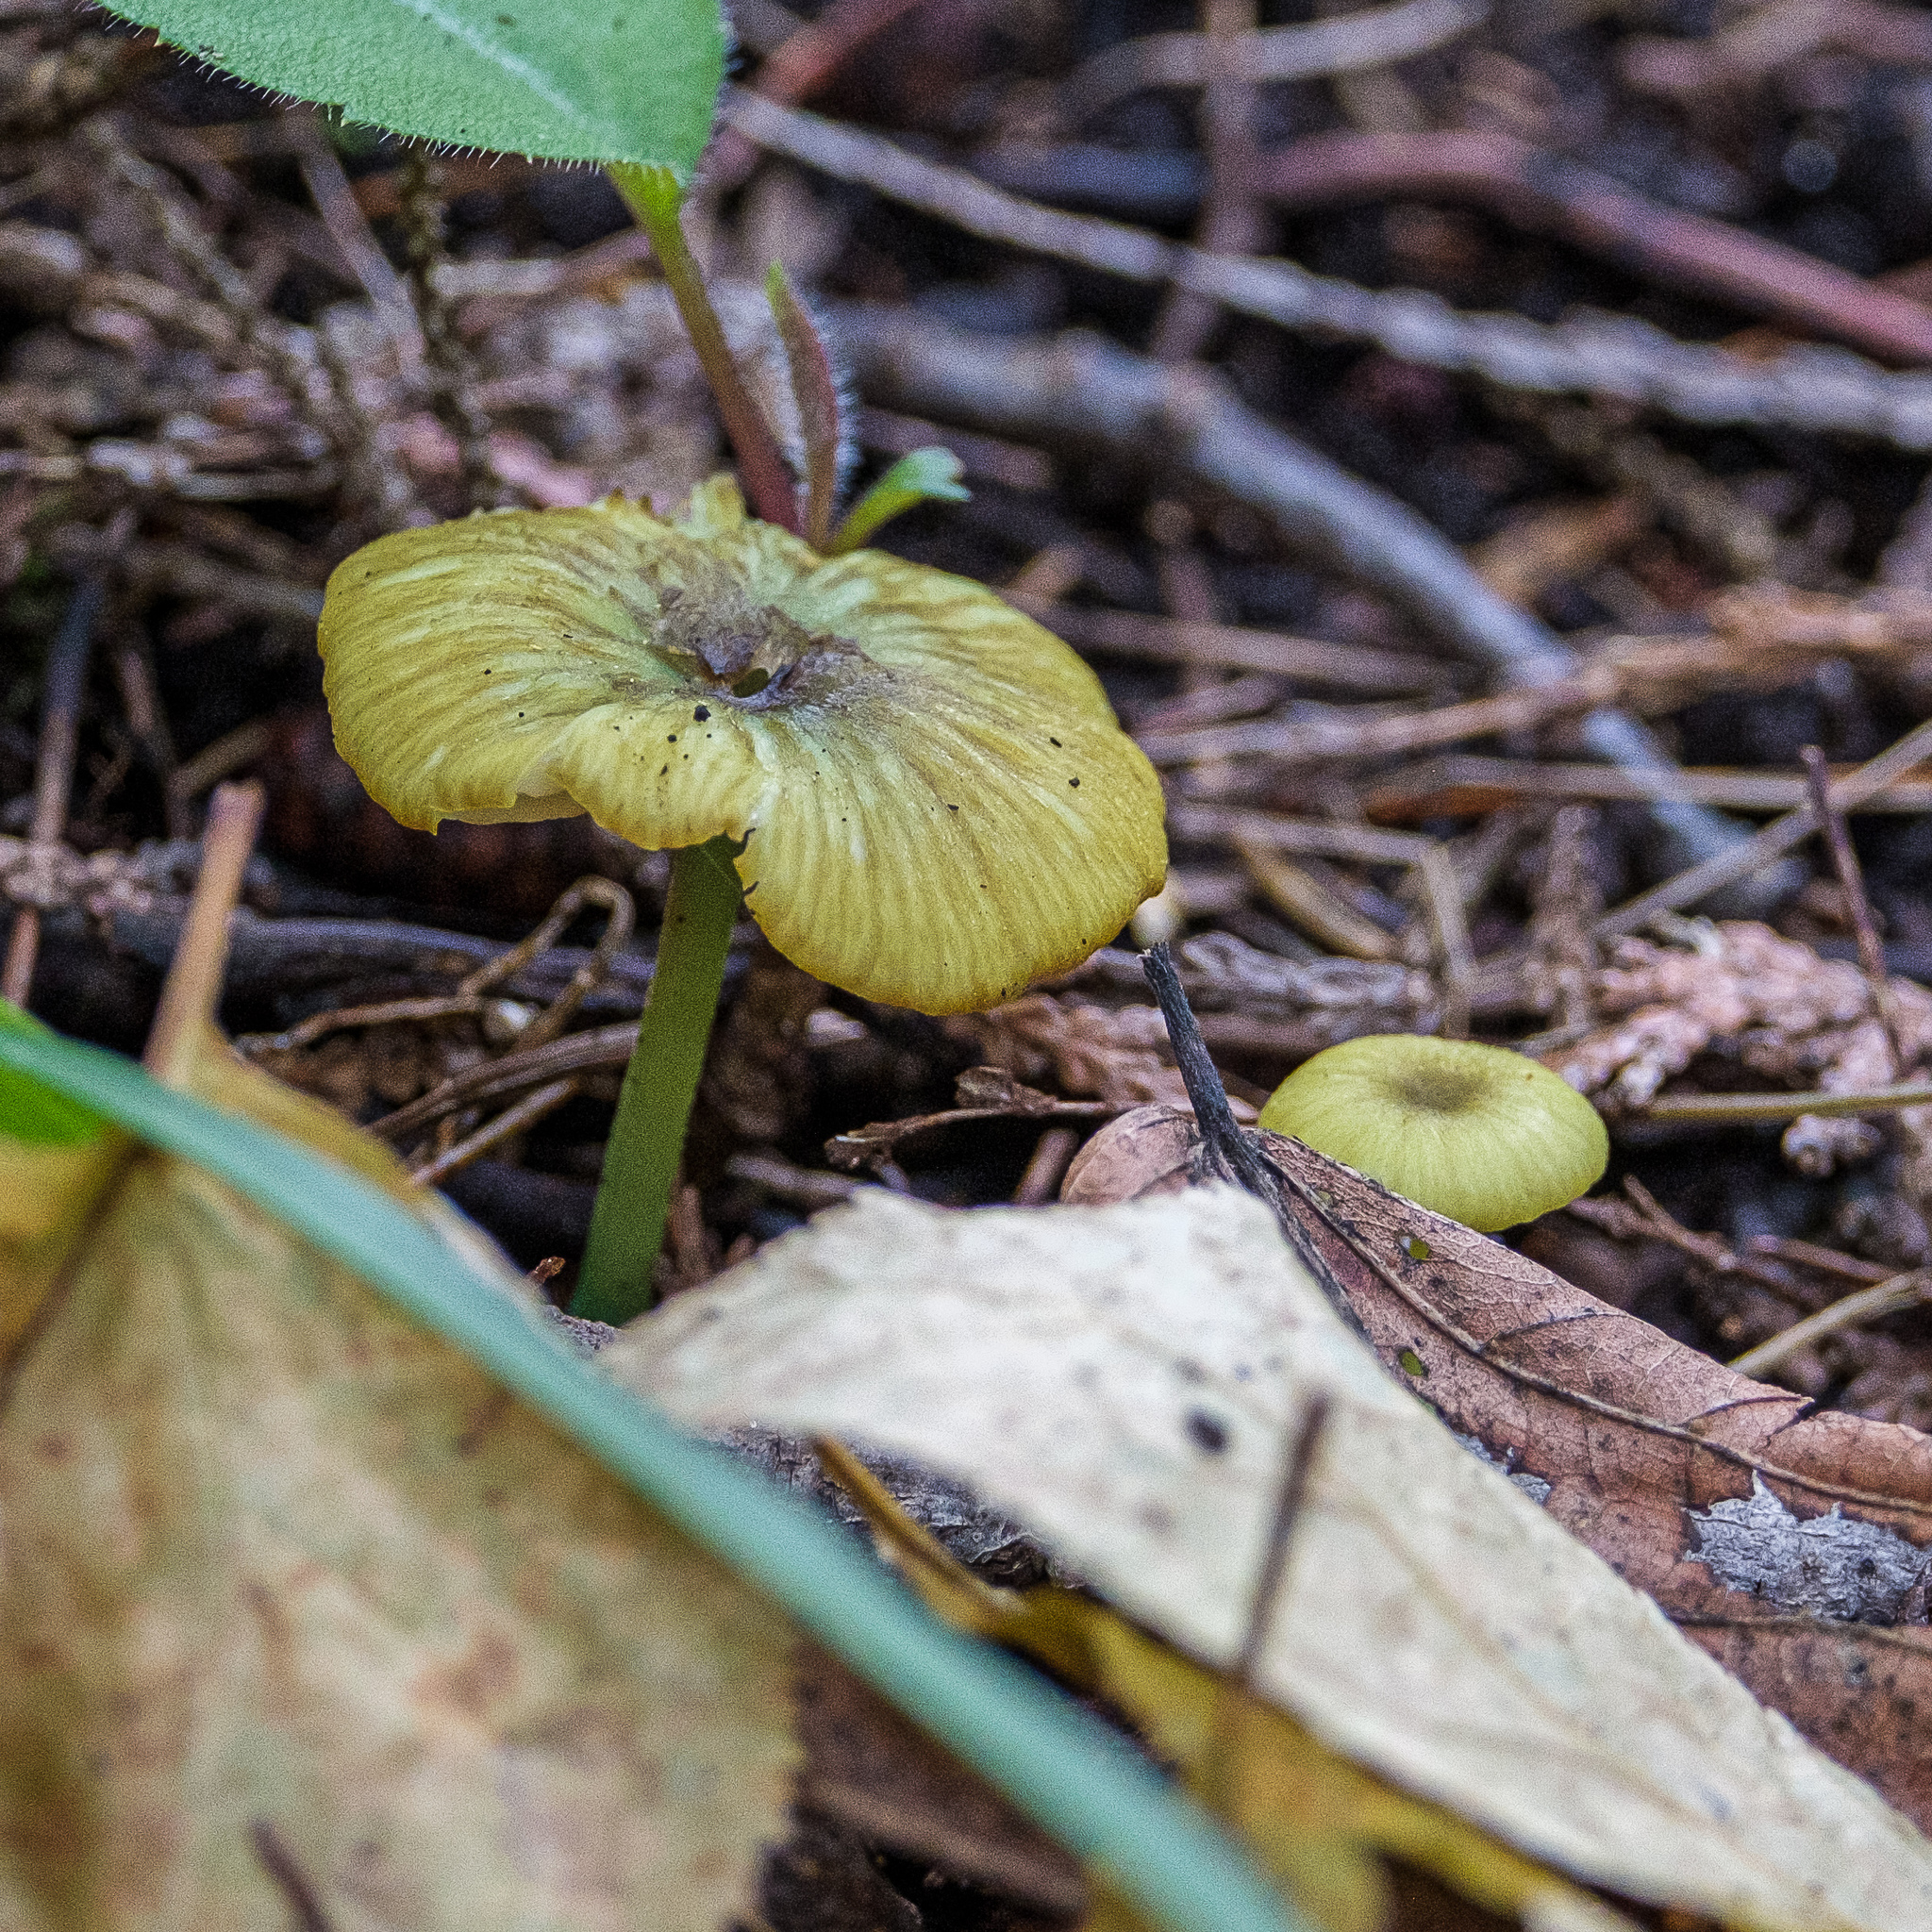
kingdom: Fungi
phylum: Basidiomycota
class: Agaricomycetes
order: Agaricales
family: Entolomataceae
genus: Entoloma
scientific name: Entoloma incanum
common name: Mousepee pinkgill
